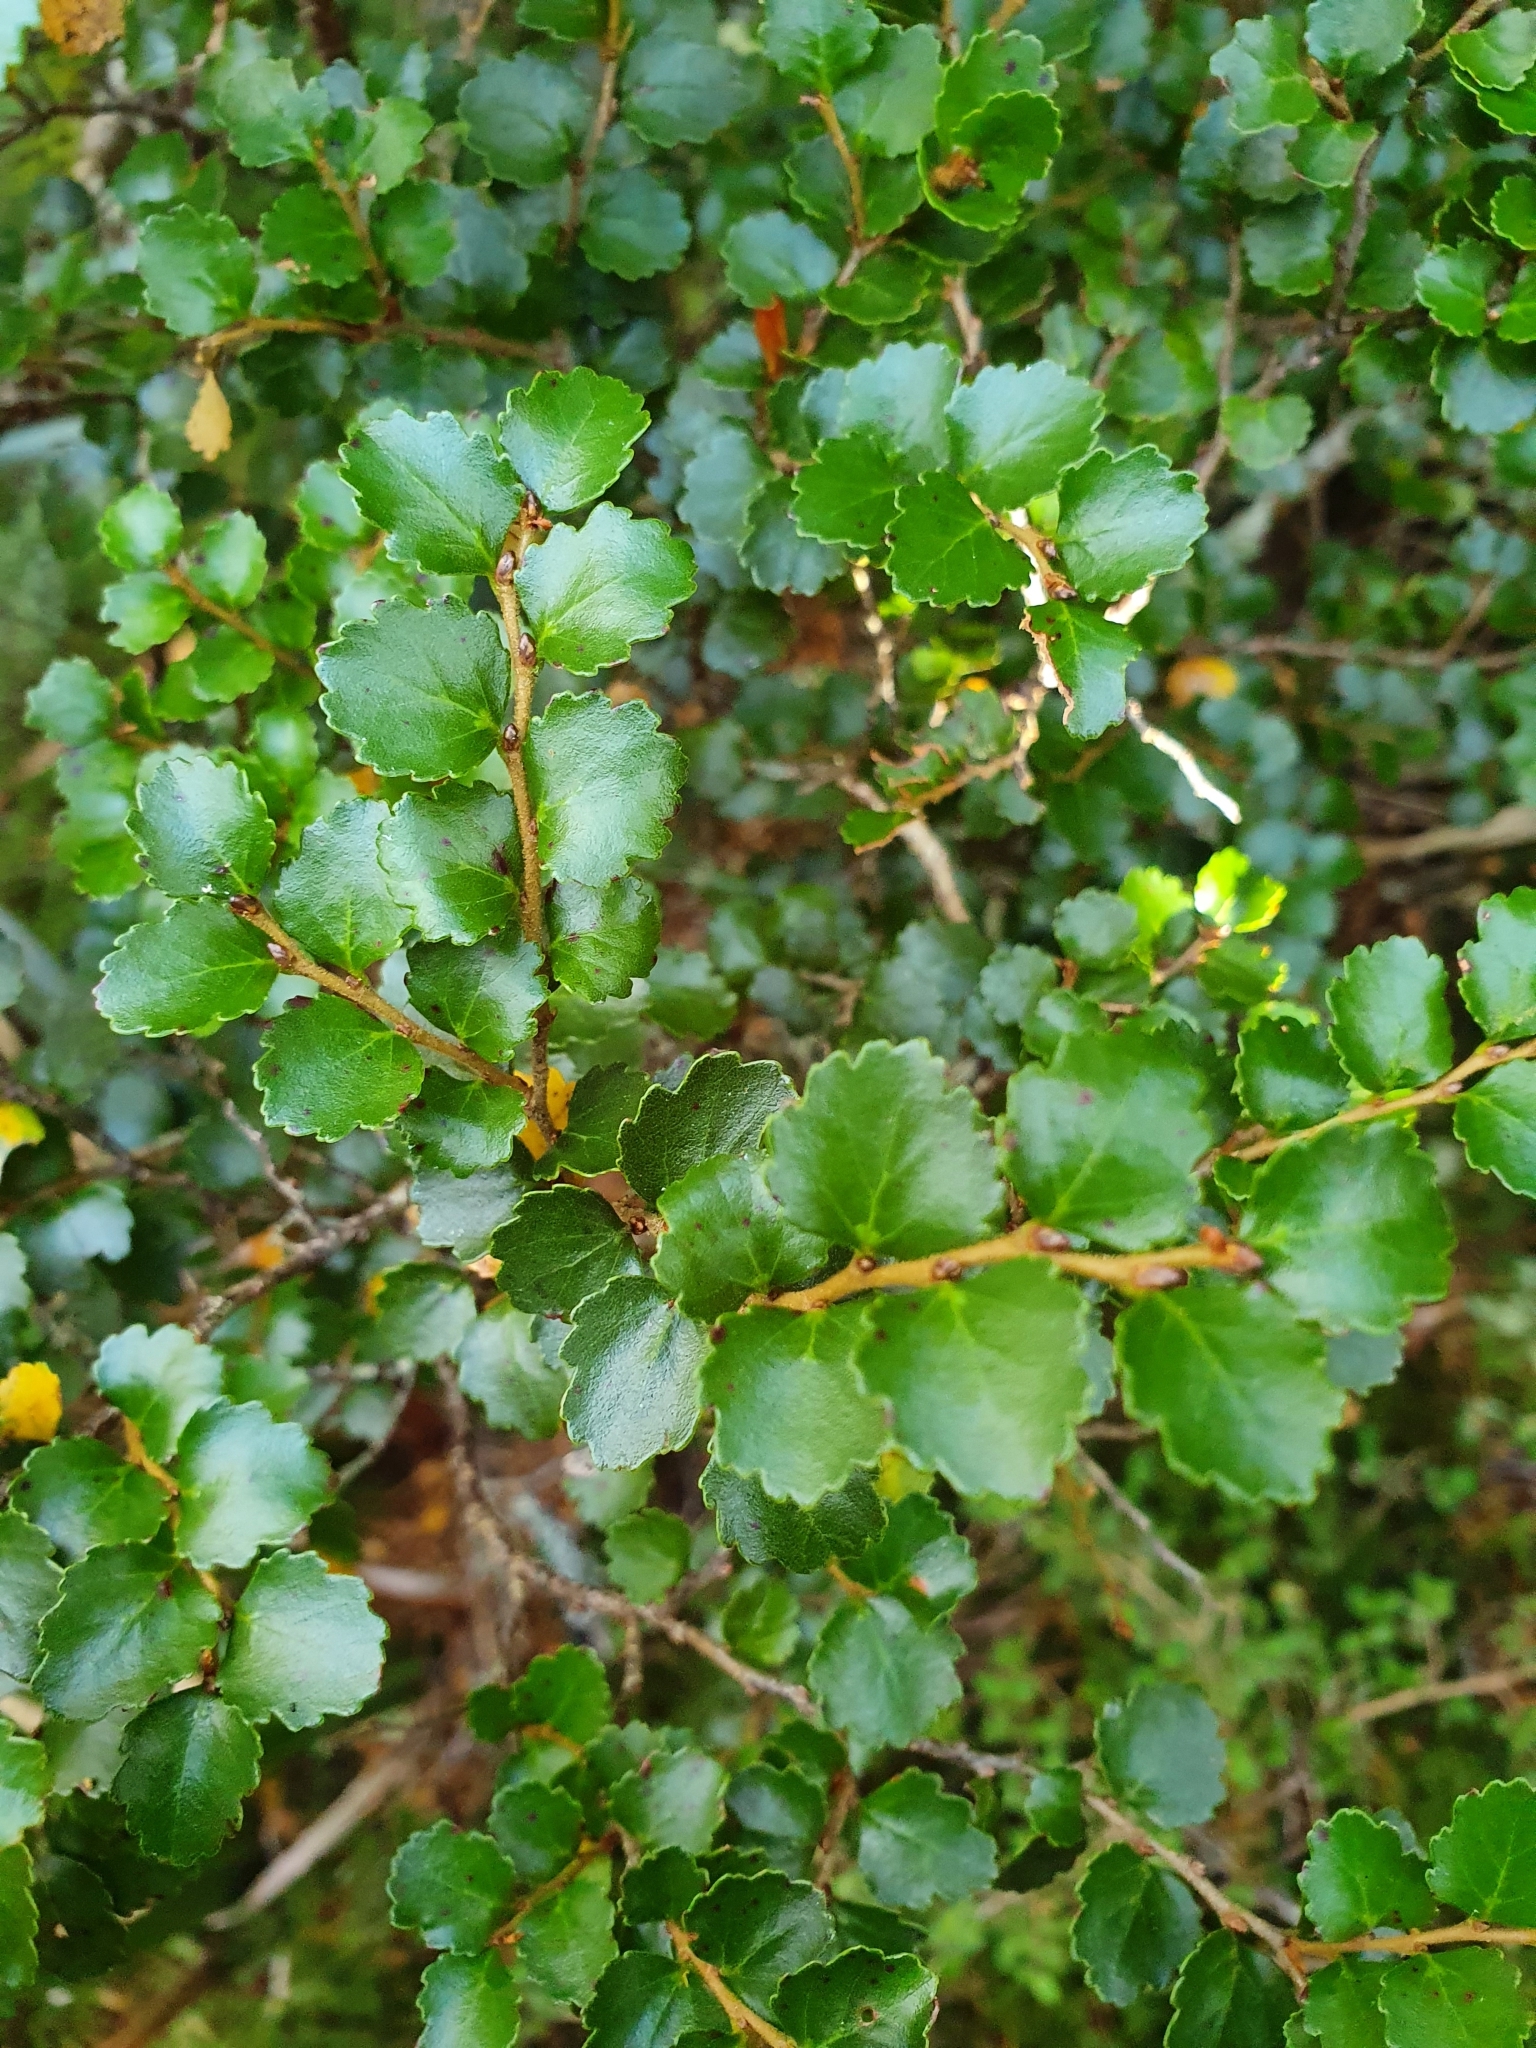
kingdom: Plantae
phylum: Tracheophyta
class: Magnoliopsida
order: Fagales
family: Nothofagaceae
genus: Nothofagus
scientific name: Nothofagus menziesii
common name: Silver beech
